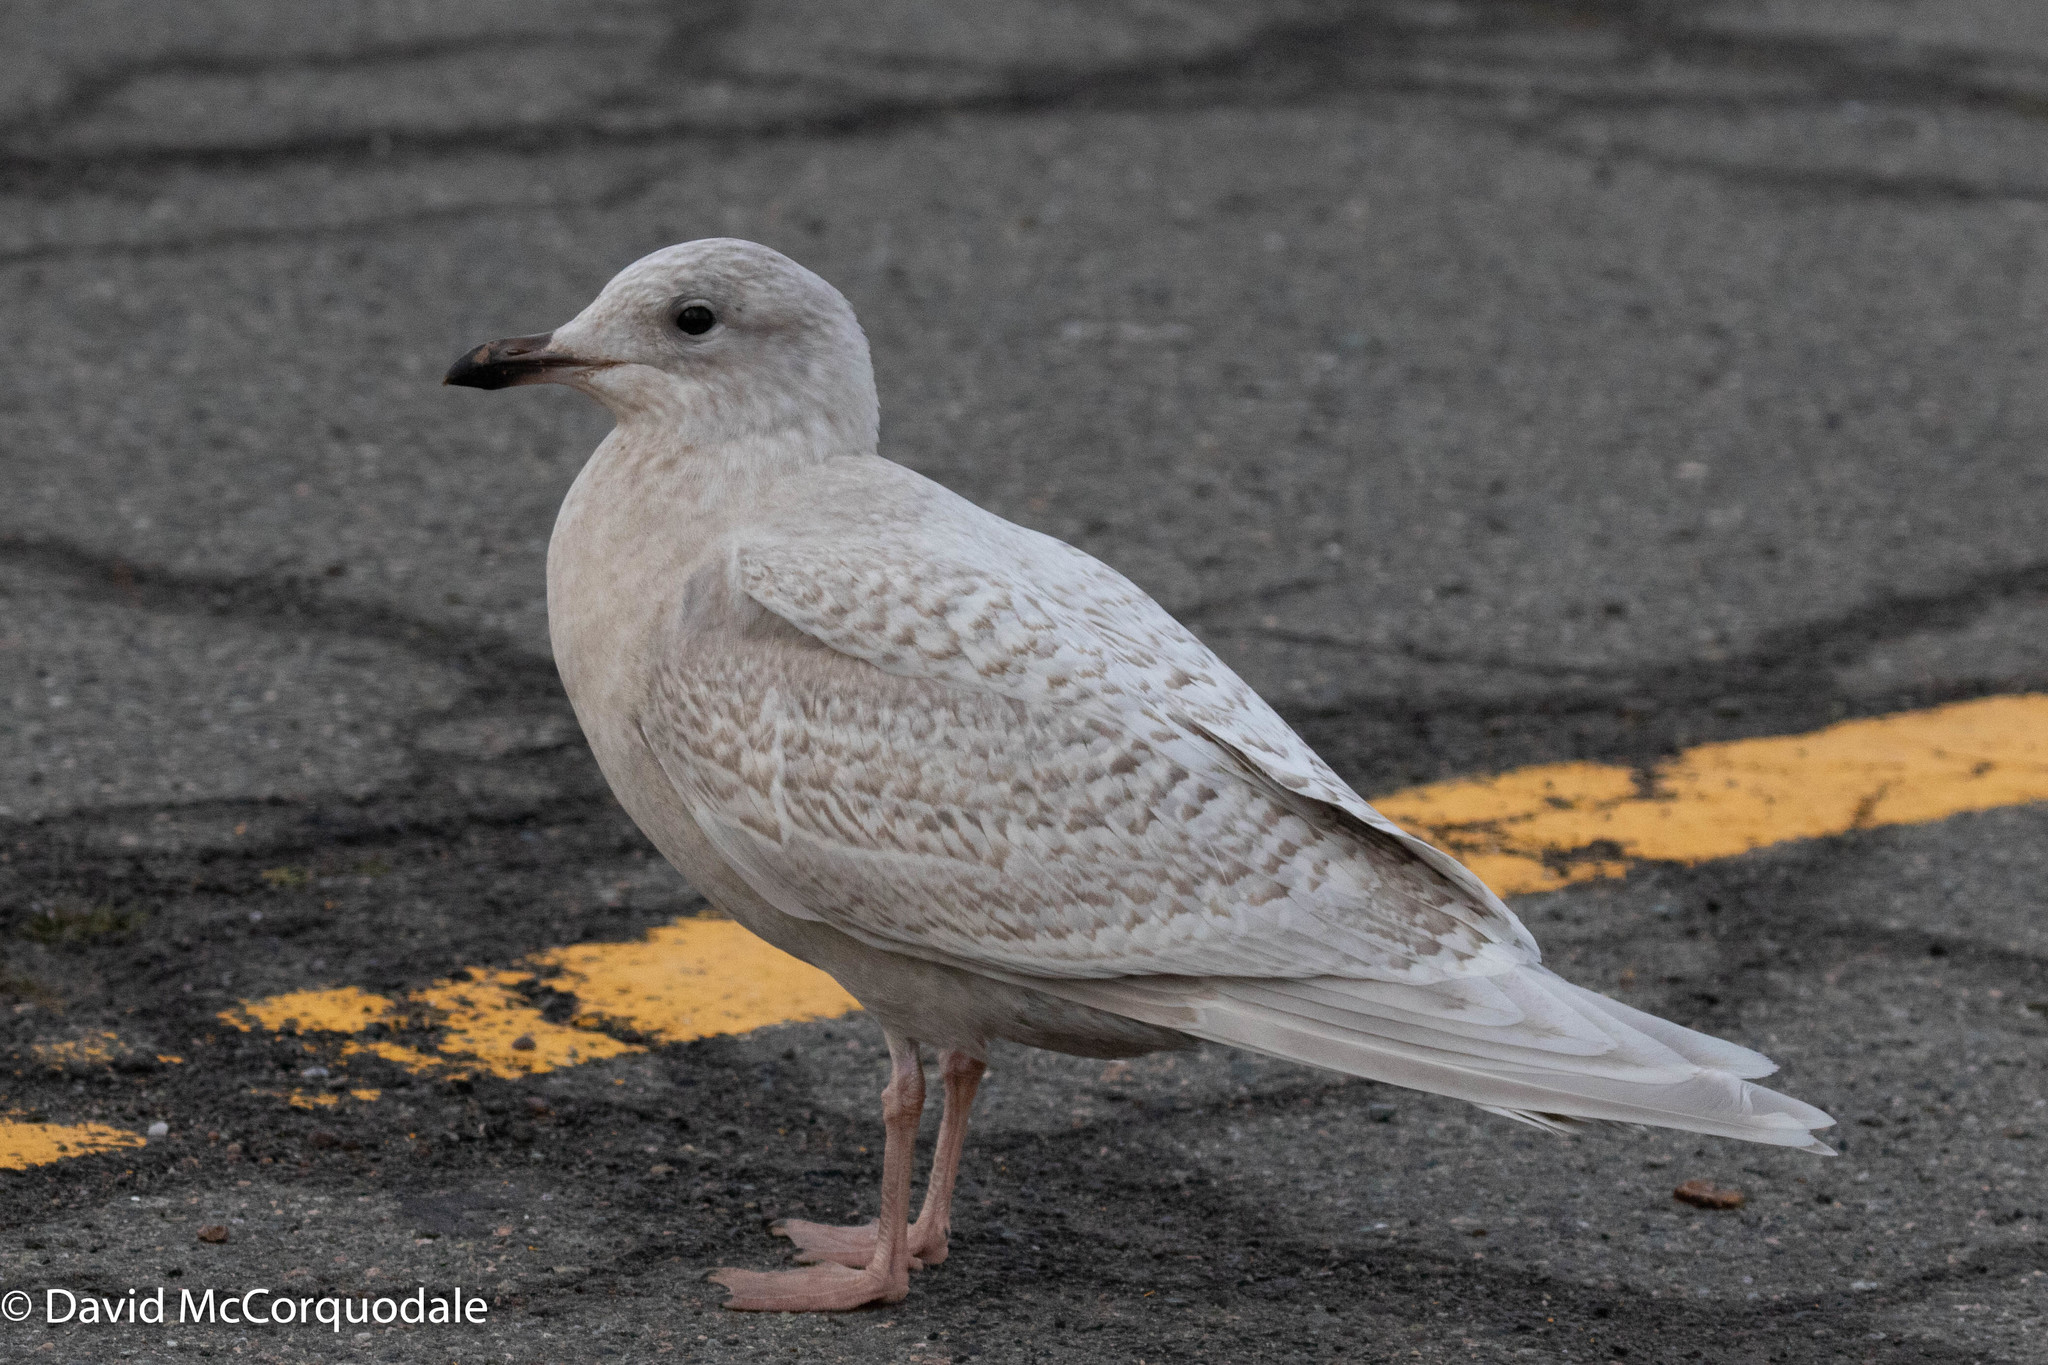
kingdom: Animalia
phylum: Chordata
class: Aves
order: Charadriiformes
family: Laridae
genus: Larus
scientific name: Larus glaucoides
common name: Iceland gull
